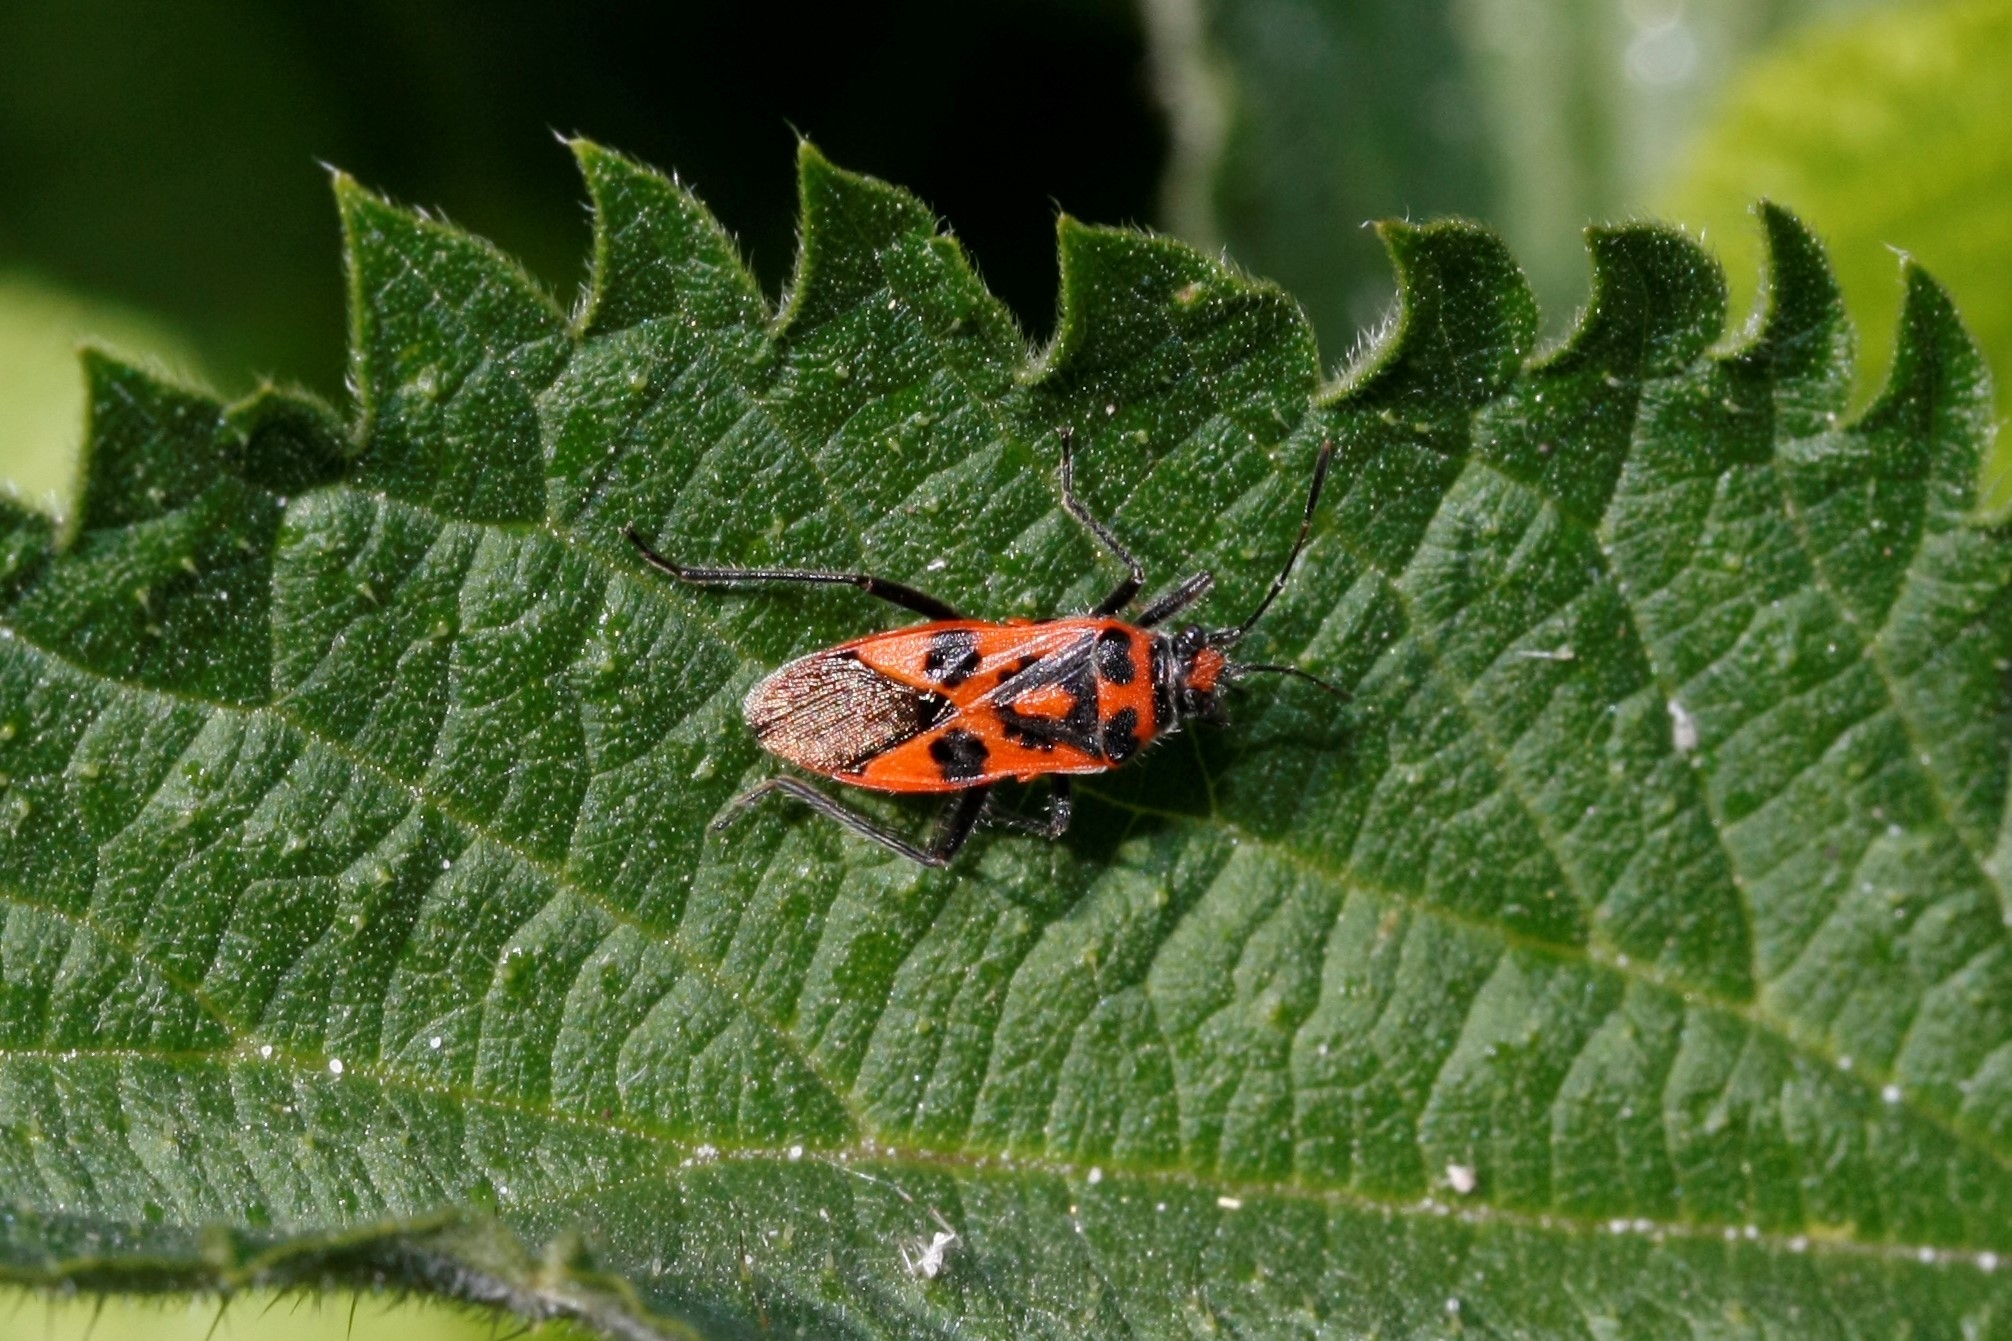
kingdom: Animalia
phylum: Arthropoda
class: Insecta
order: Hemiptera
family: Rhopalidae
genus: Corizus
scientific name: Corizus hyoscyami
